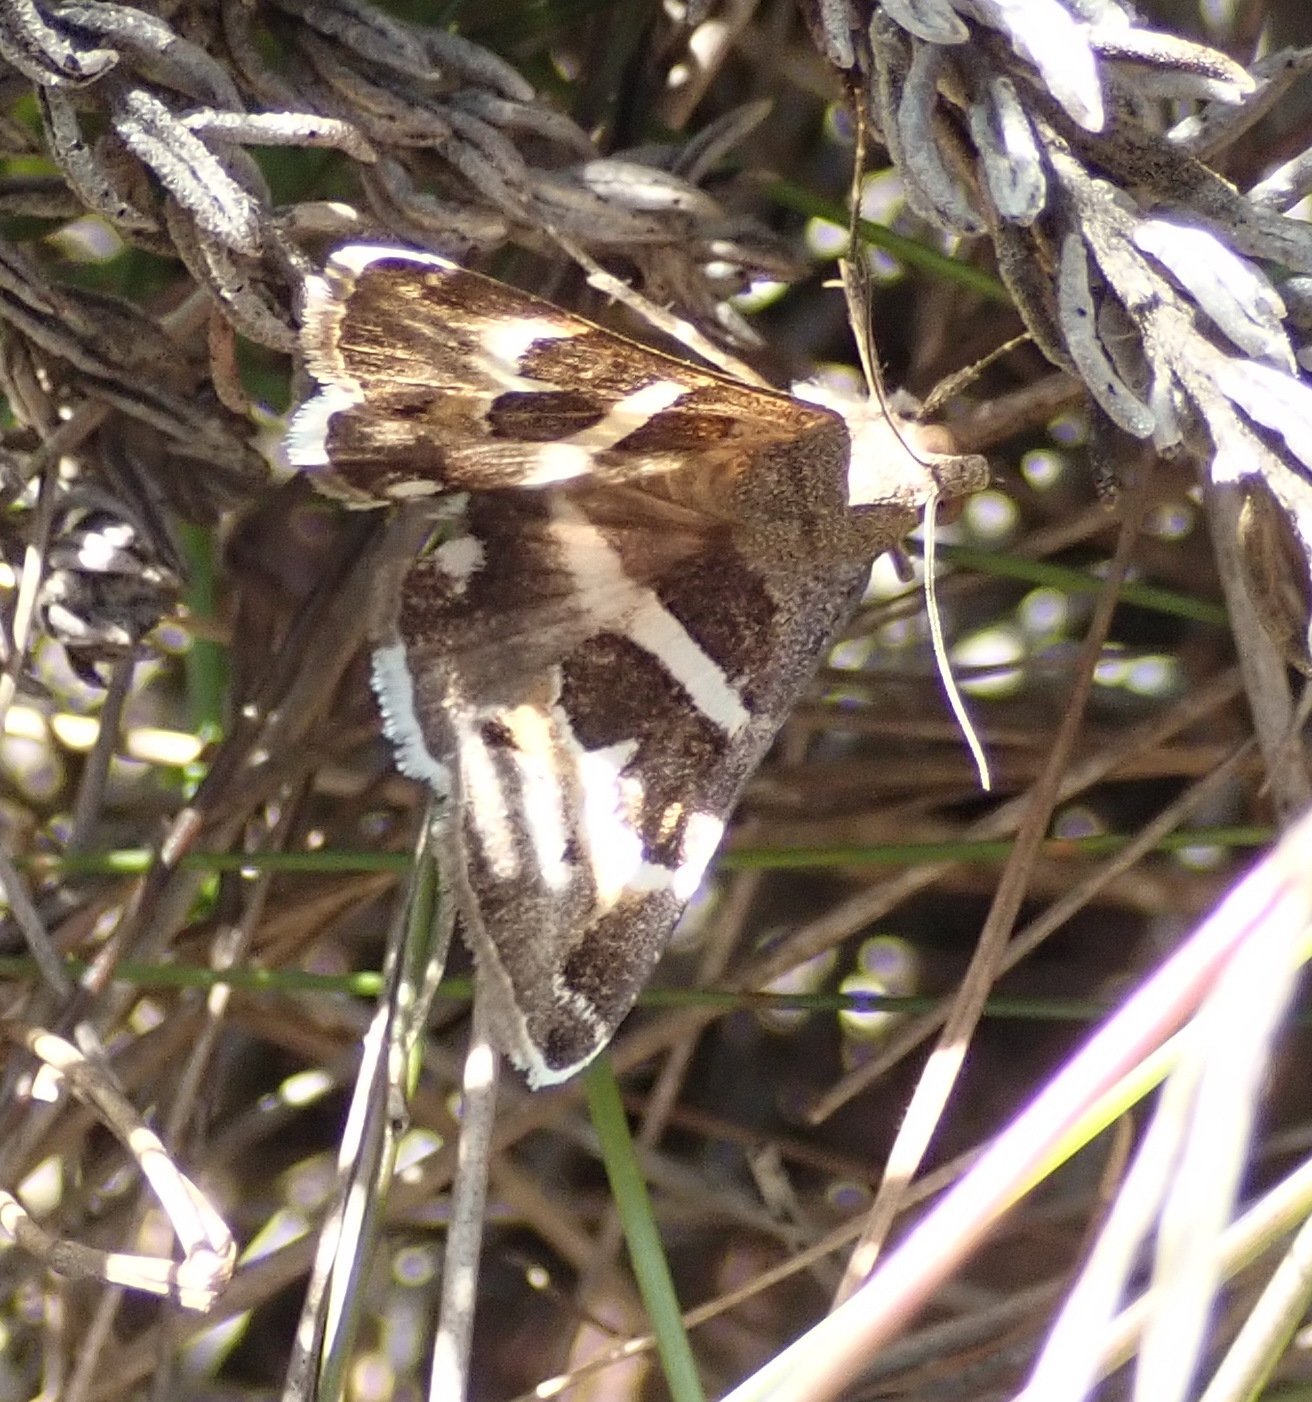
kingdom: Animalia
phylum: Arthropoda
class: Insecta
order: Lepidoptera
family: Erebidae
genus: Grammodes
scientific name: Grammodes stolida
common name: Geometrician
